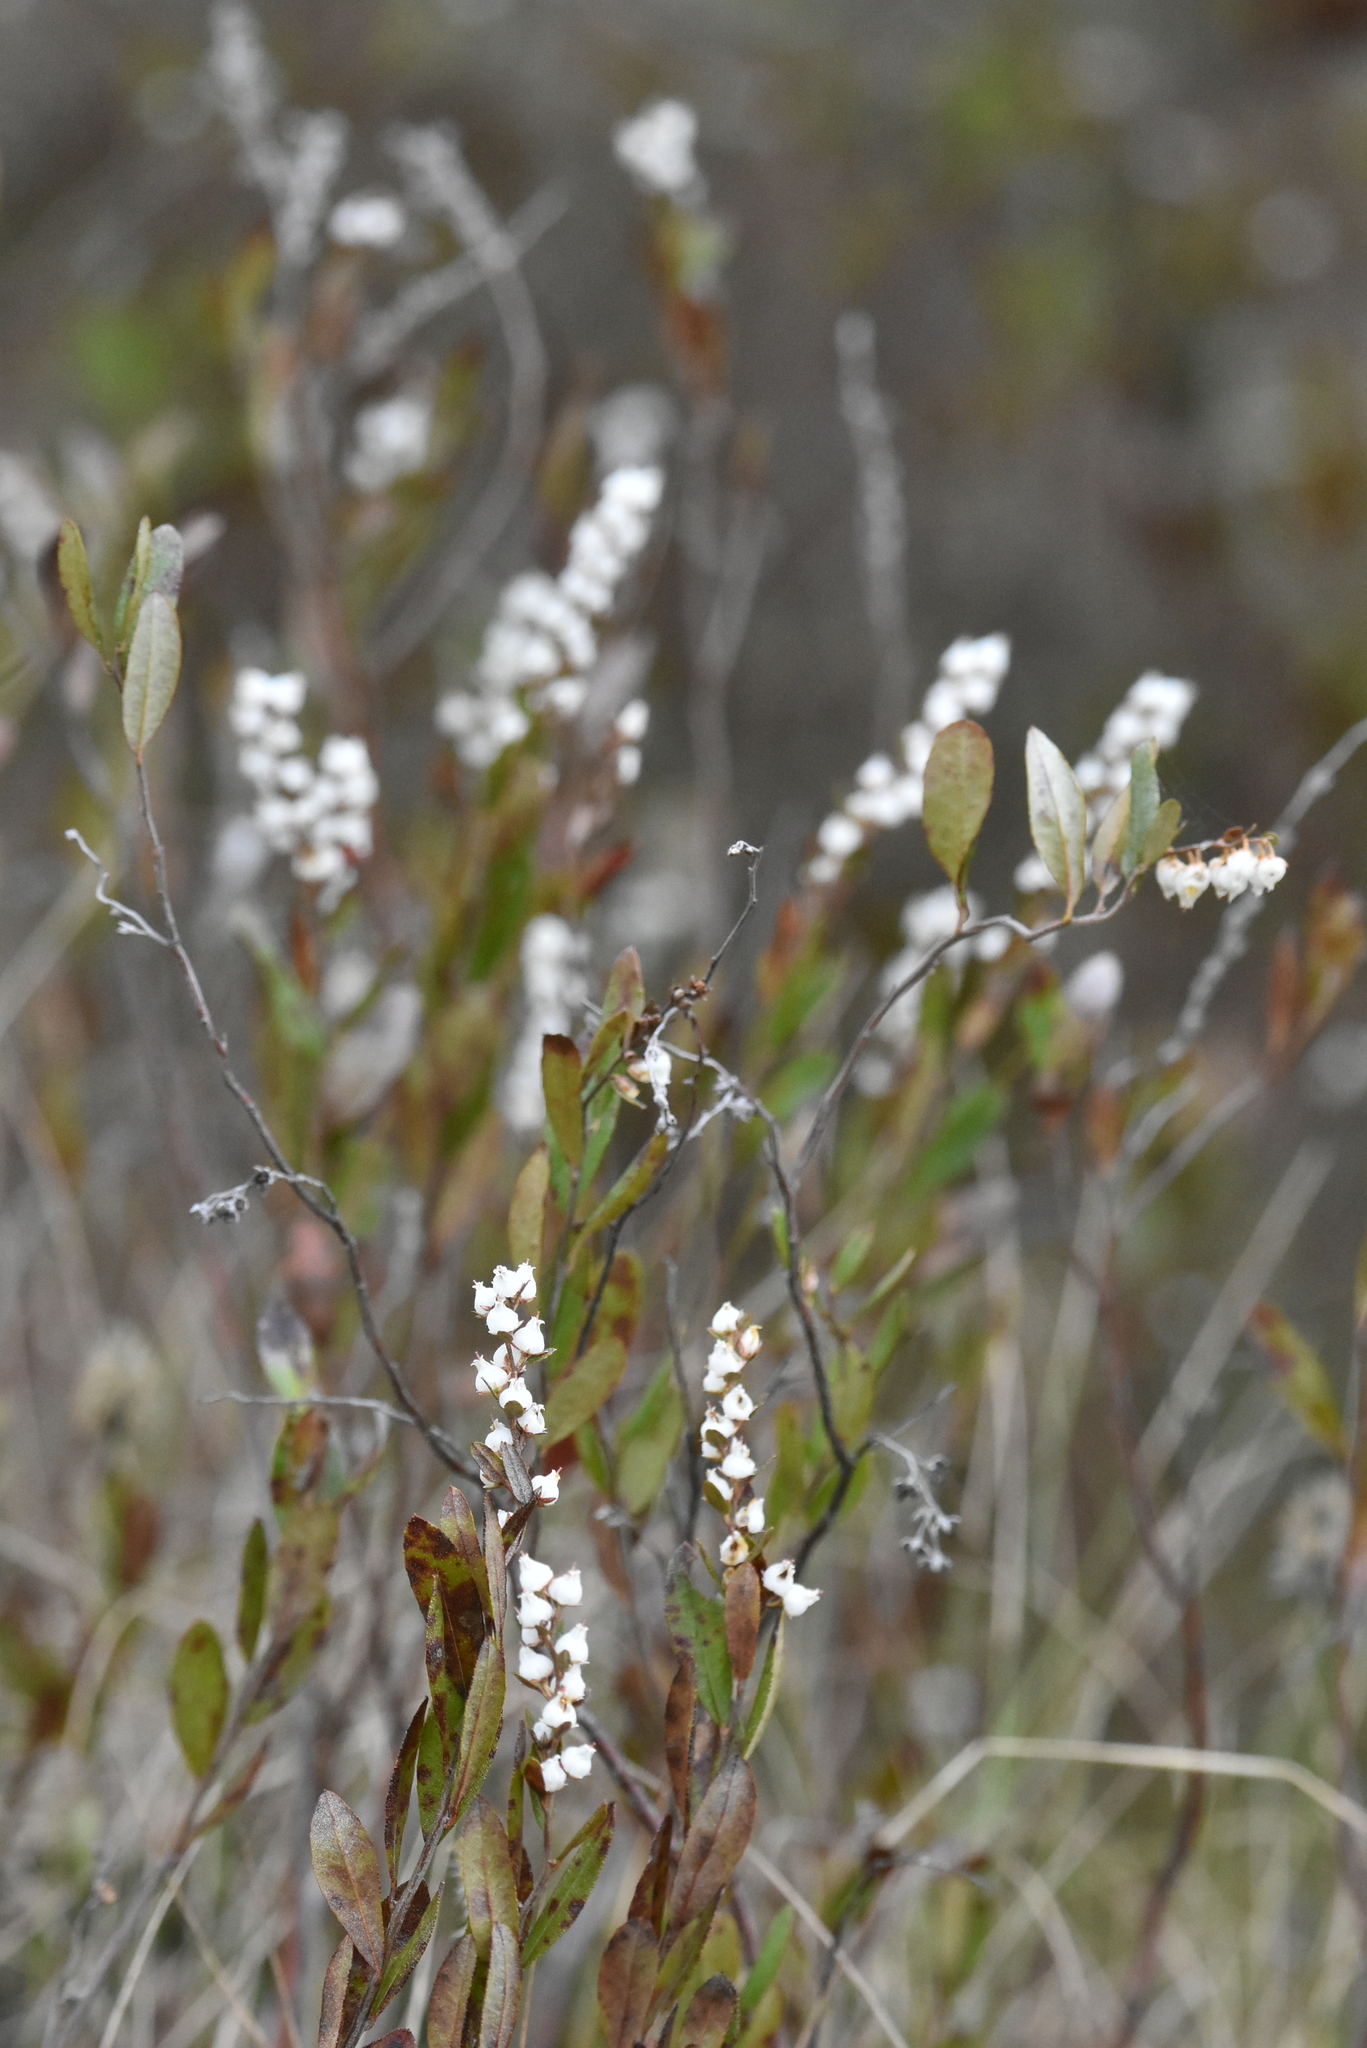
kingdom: Plantae
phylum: Tracheophyta
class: Magnoliopsida
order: Ericales
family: Ericaceae
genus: Chamaedaphne
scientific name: Chamaedaphne calyculata
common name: Leatherleaf
